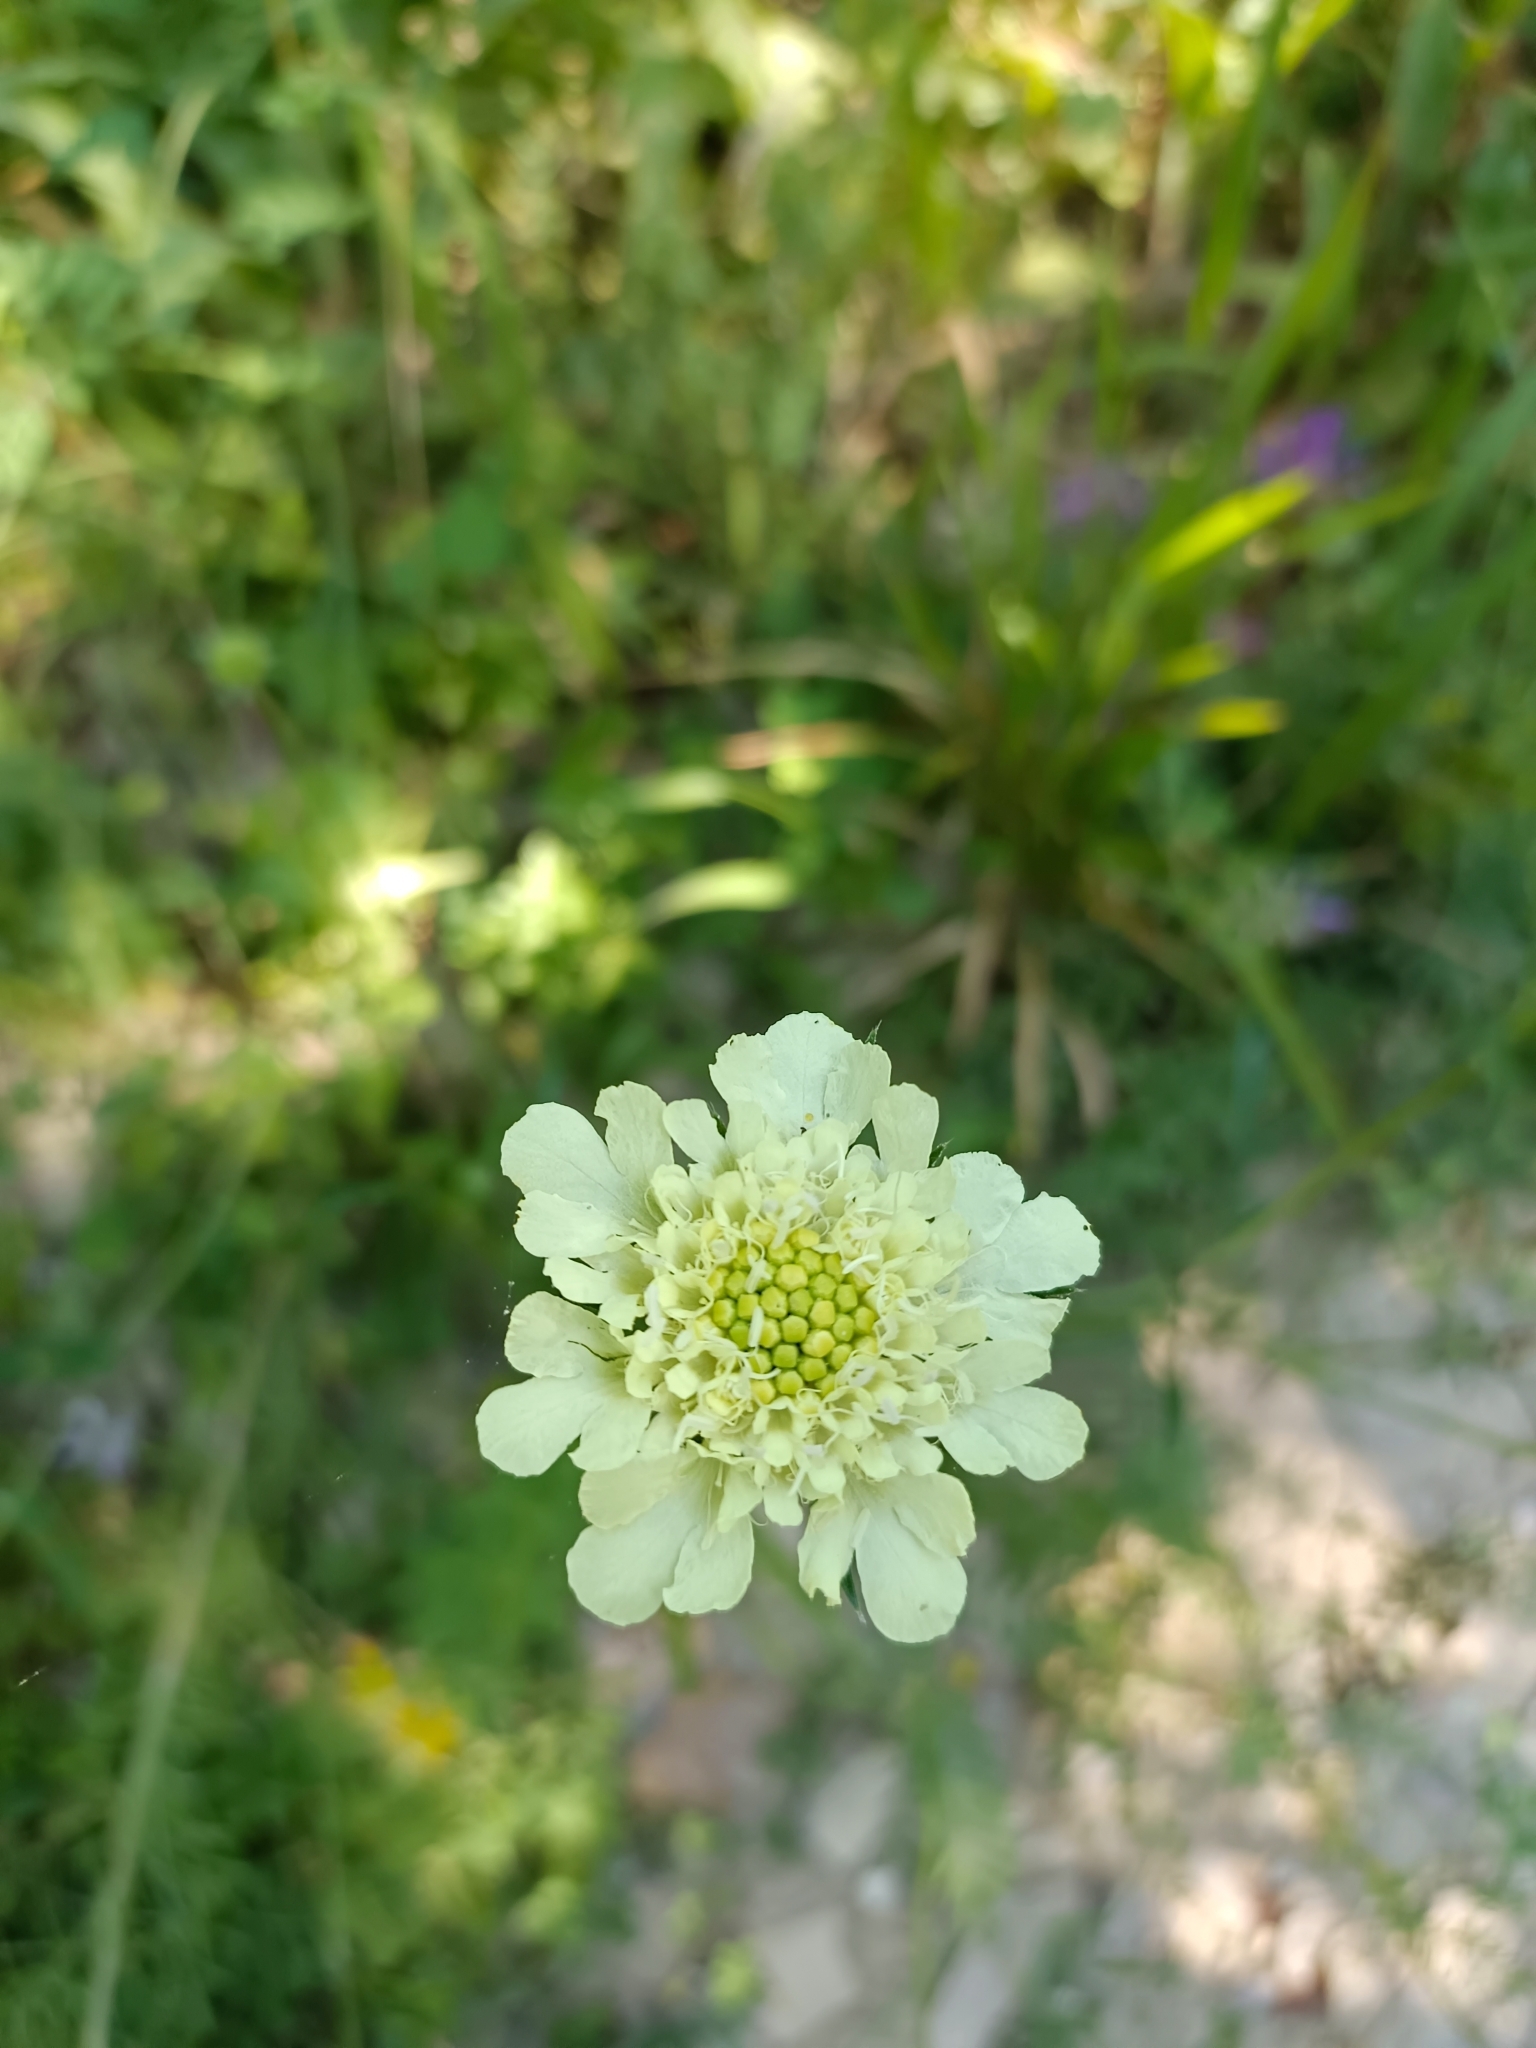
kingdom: Plantae
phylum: Tracheophyta
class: Magnoliopsida
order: Dipsacales
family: Caprifoliaceae
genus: Scabiosa
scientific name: Scabiosa ochroleuca
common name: Cream pincushions
